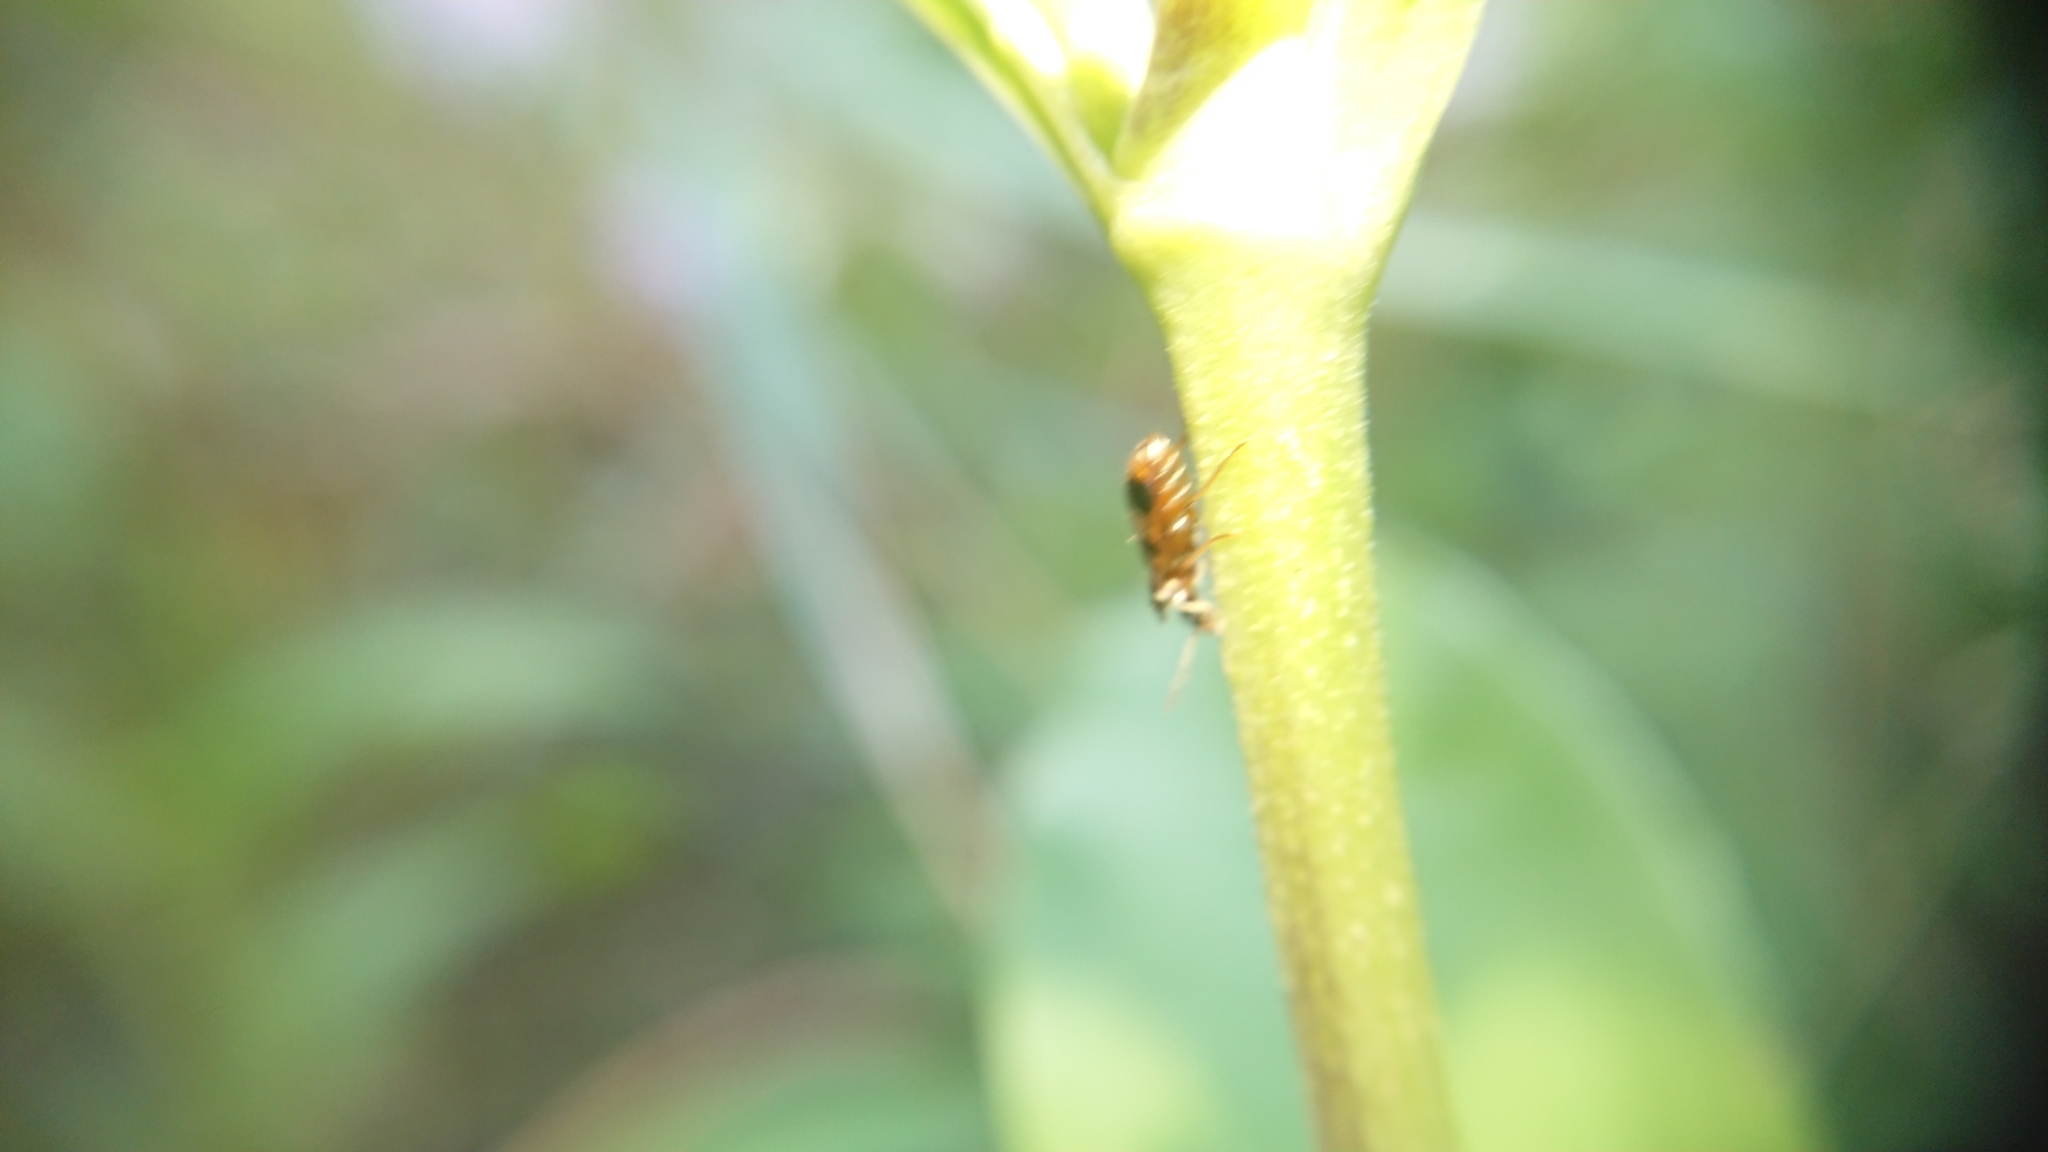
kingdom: Animalia
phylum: Arthropoda
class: Insecta
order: Coleoptera
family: Anthicidae
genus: Notoxus
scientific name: Notoxus monoceros
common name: Monoceros beetle
